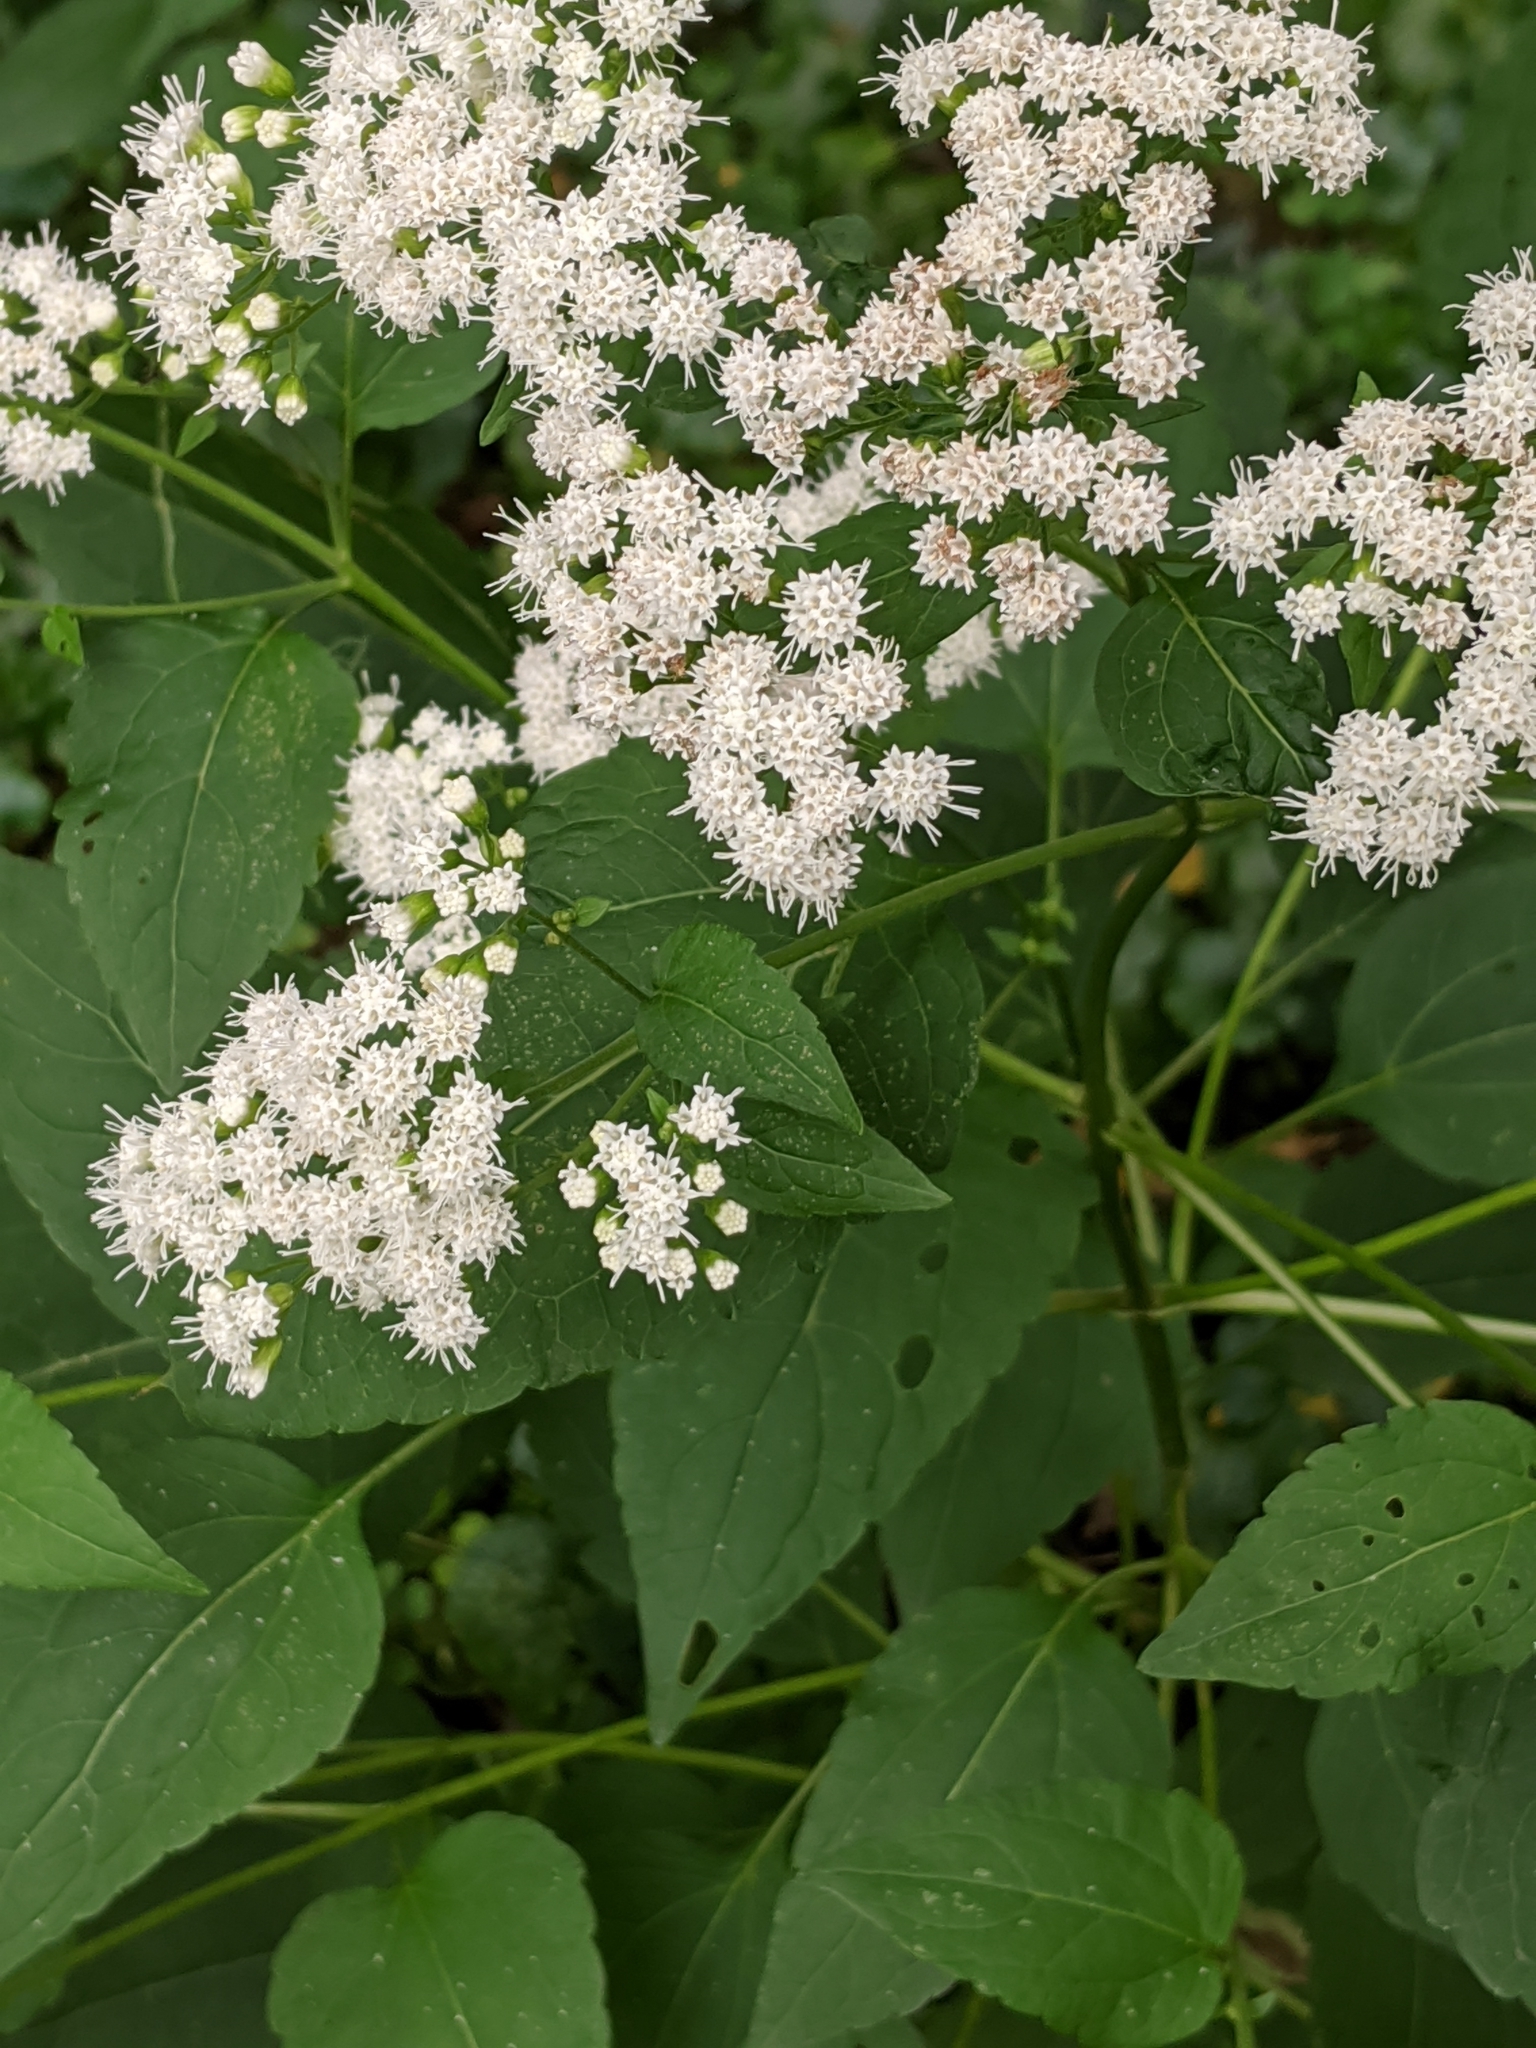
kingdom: Plantae
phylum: Tracheophyta
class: Magnoliopsida
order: Asterales
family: Asteraceae
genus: Ageratina
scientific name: Ageratina altissima
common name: White snakeroot
